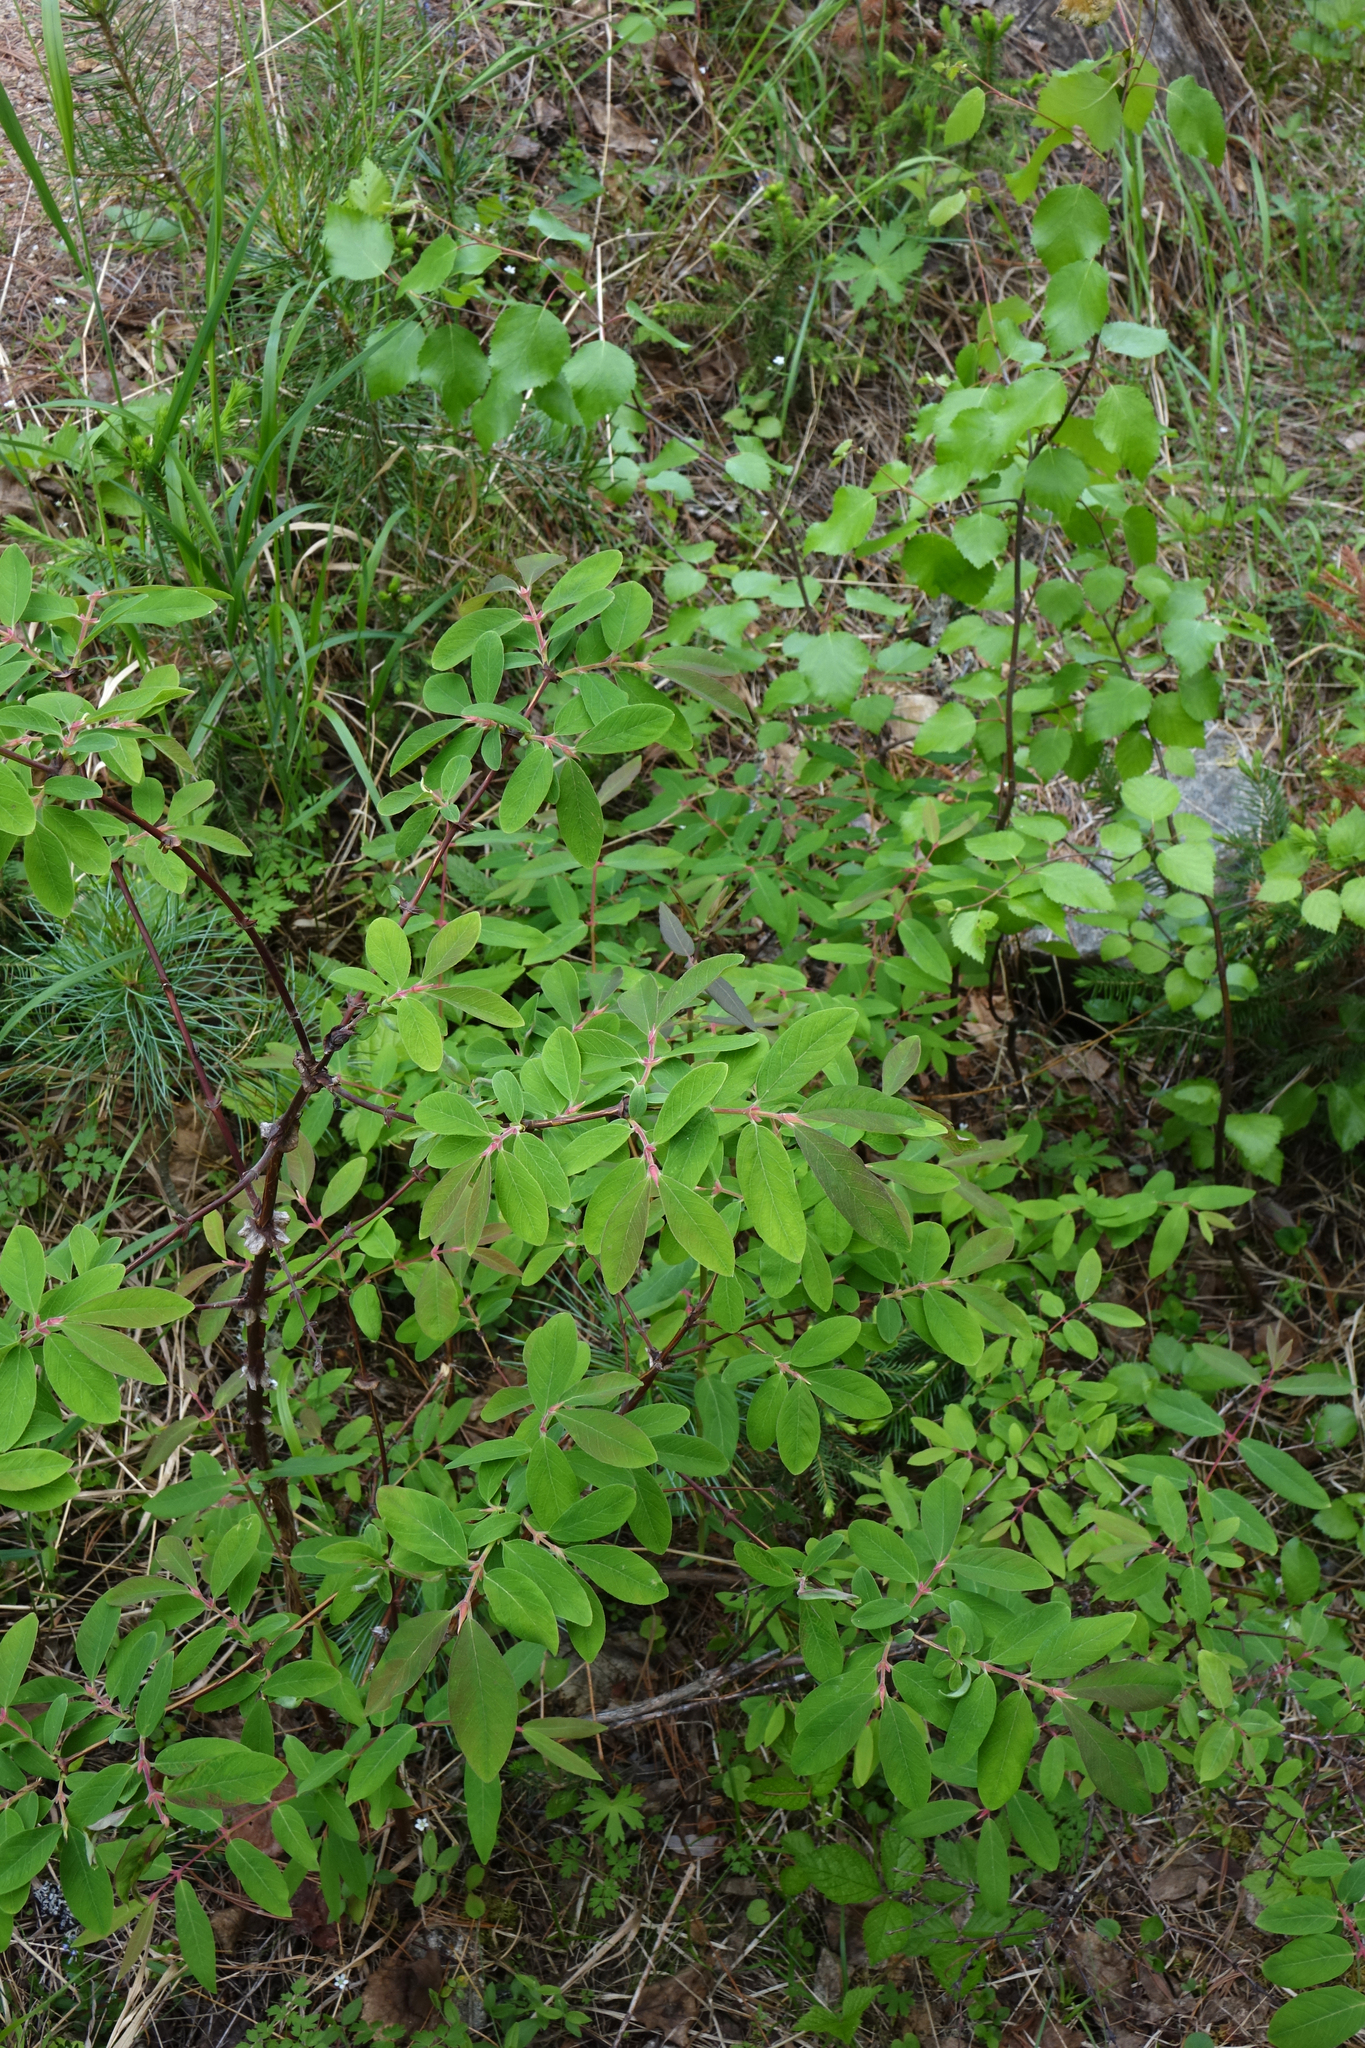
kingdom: Plantae
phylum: Tracheophyta
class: Magnoliopsida
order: Dipsacales
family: Caprifoliaceae
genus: Lonicera
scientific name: Lonicera caerulea
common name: Blue honeysuckle
